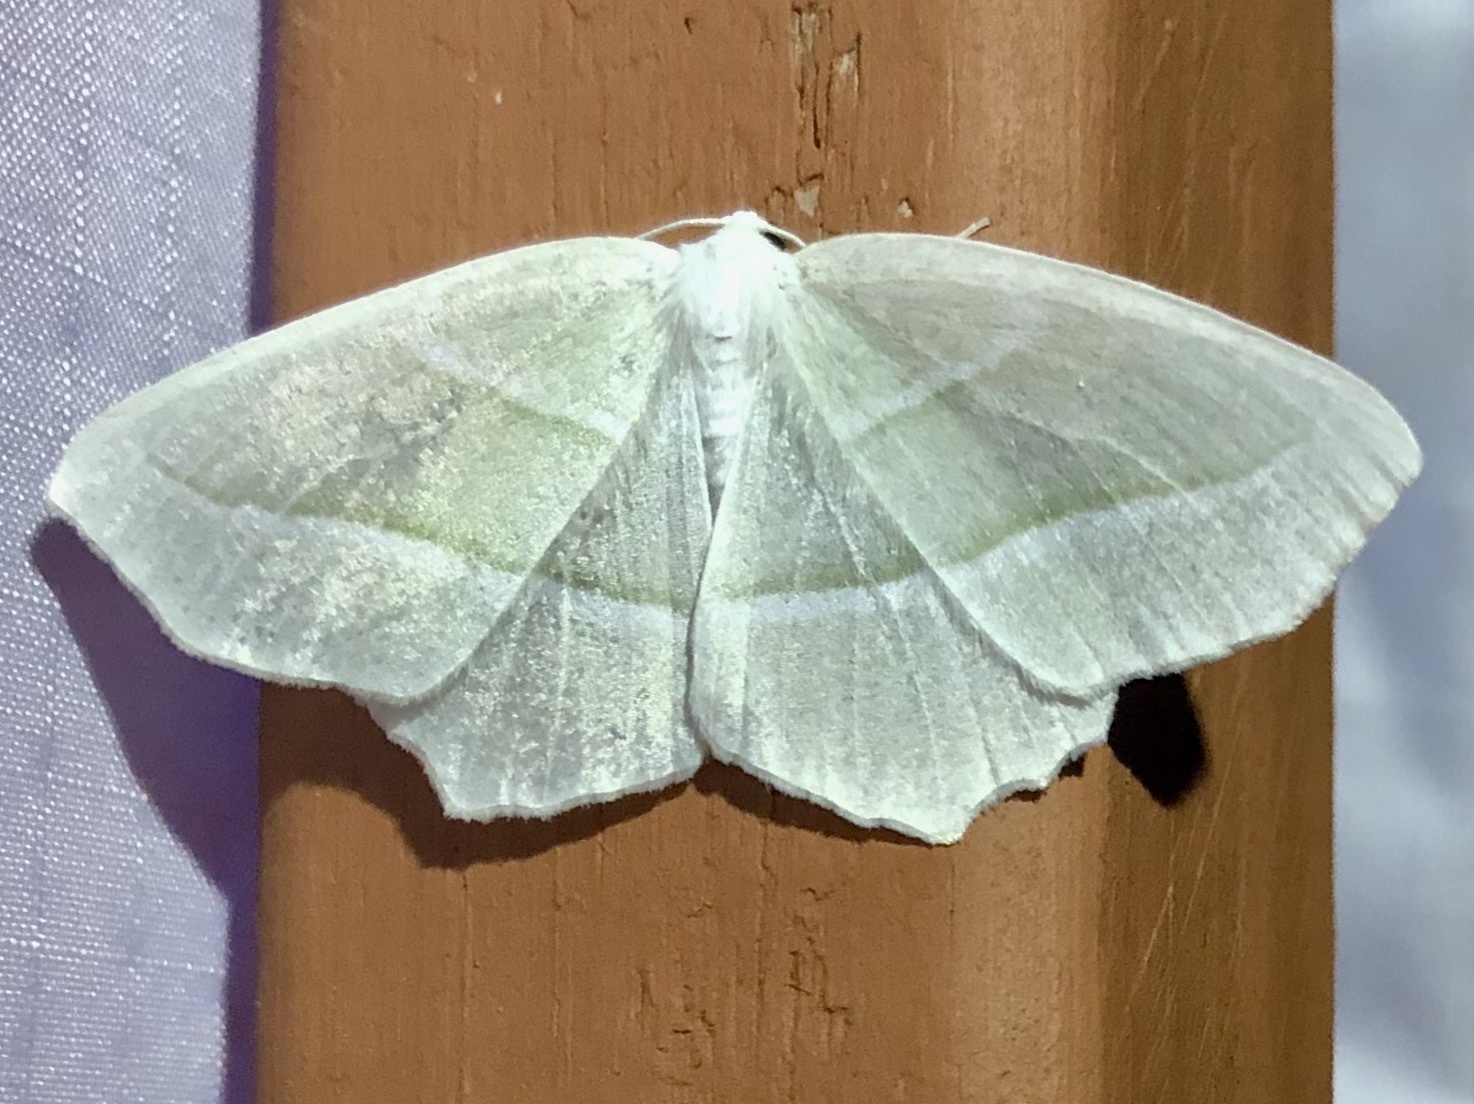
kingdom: Animalia
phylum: Arthropoda
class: Insecta
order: Lepidoptera
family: Geometridae
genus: Campaea
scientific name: Campaea perlata
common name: Fringed looper
